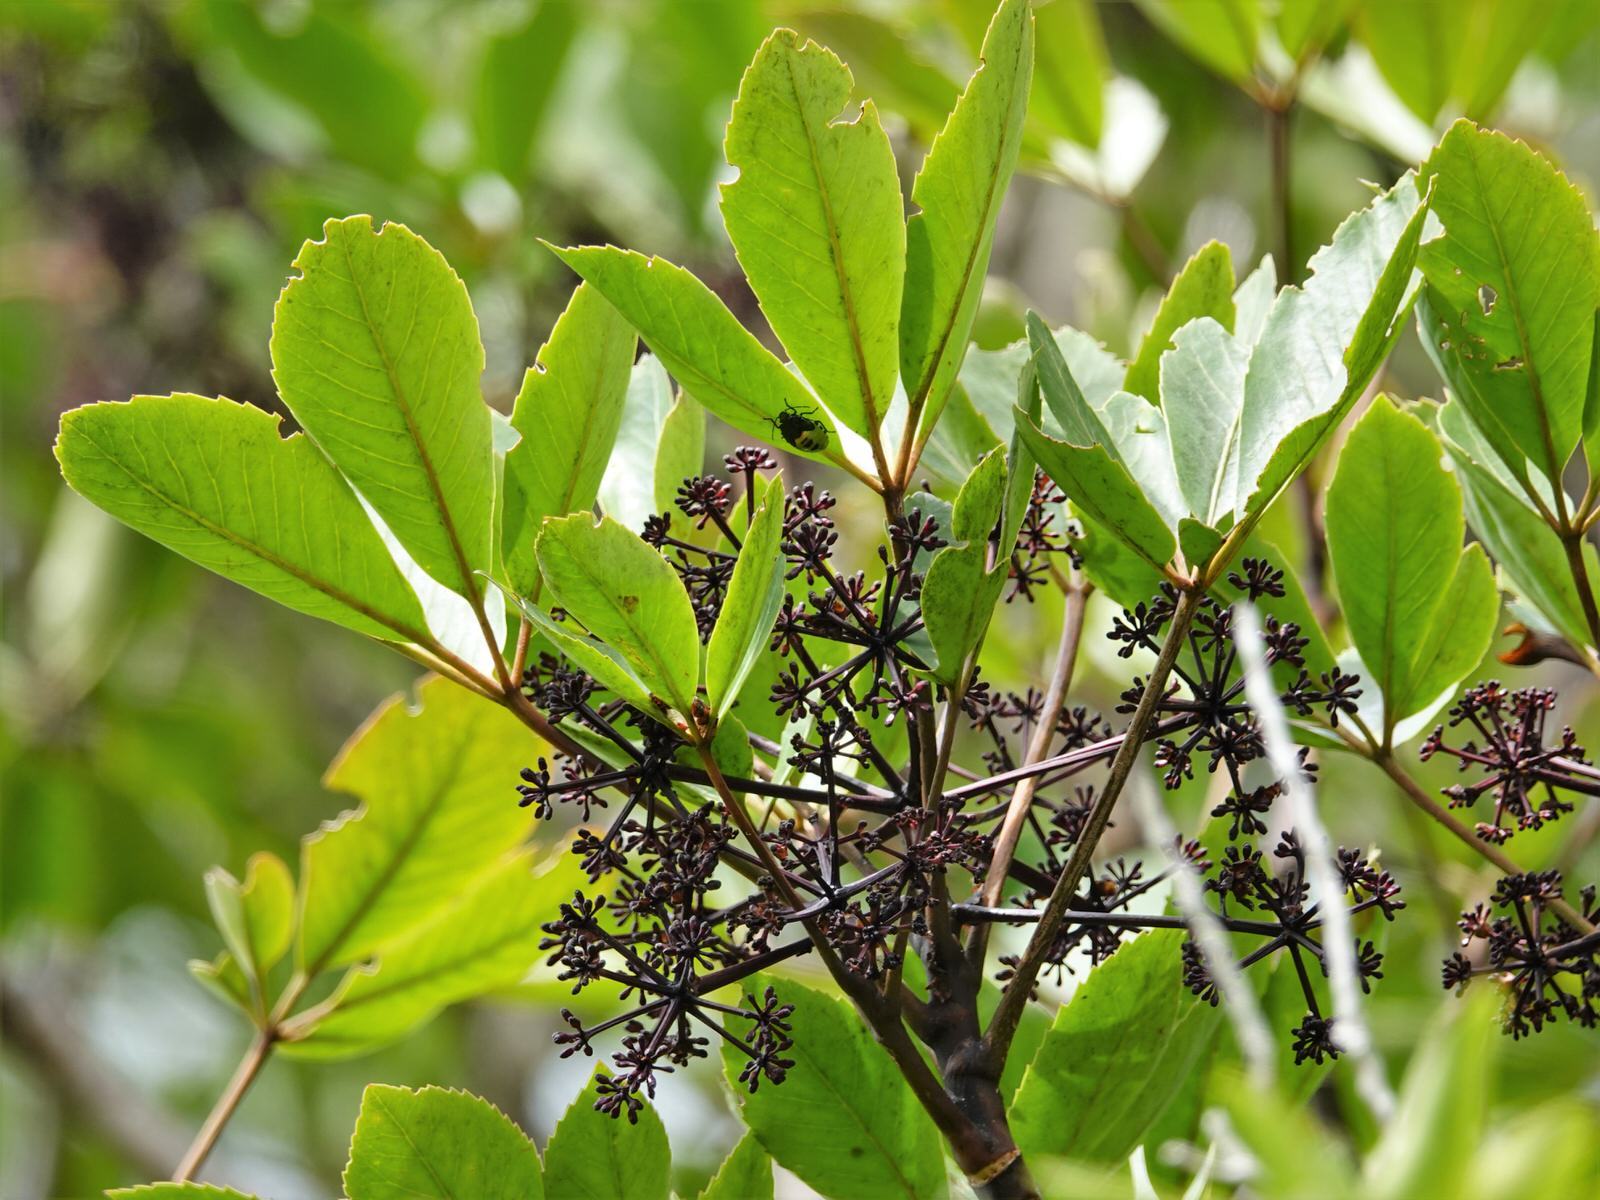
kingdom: Plantae
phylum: Tracheophyta
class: Magnoliopsida
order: Apiales
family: Araliaceae
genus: Neopanax
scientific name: Neopanax arboreus
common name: Five-fingers
